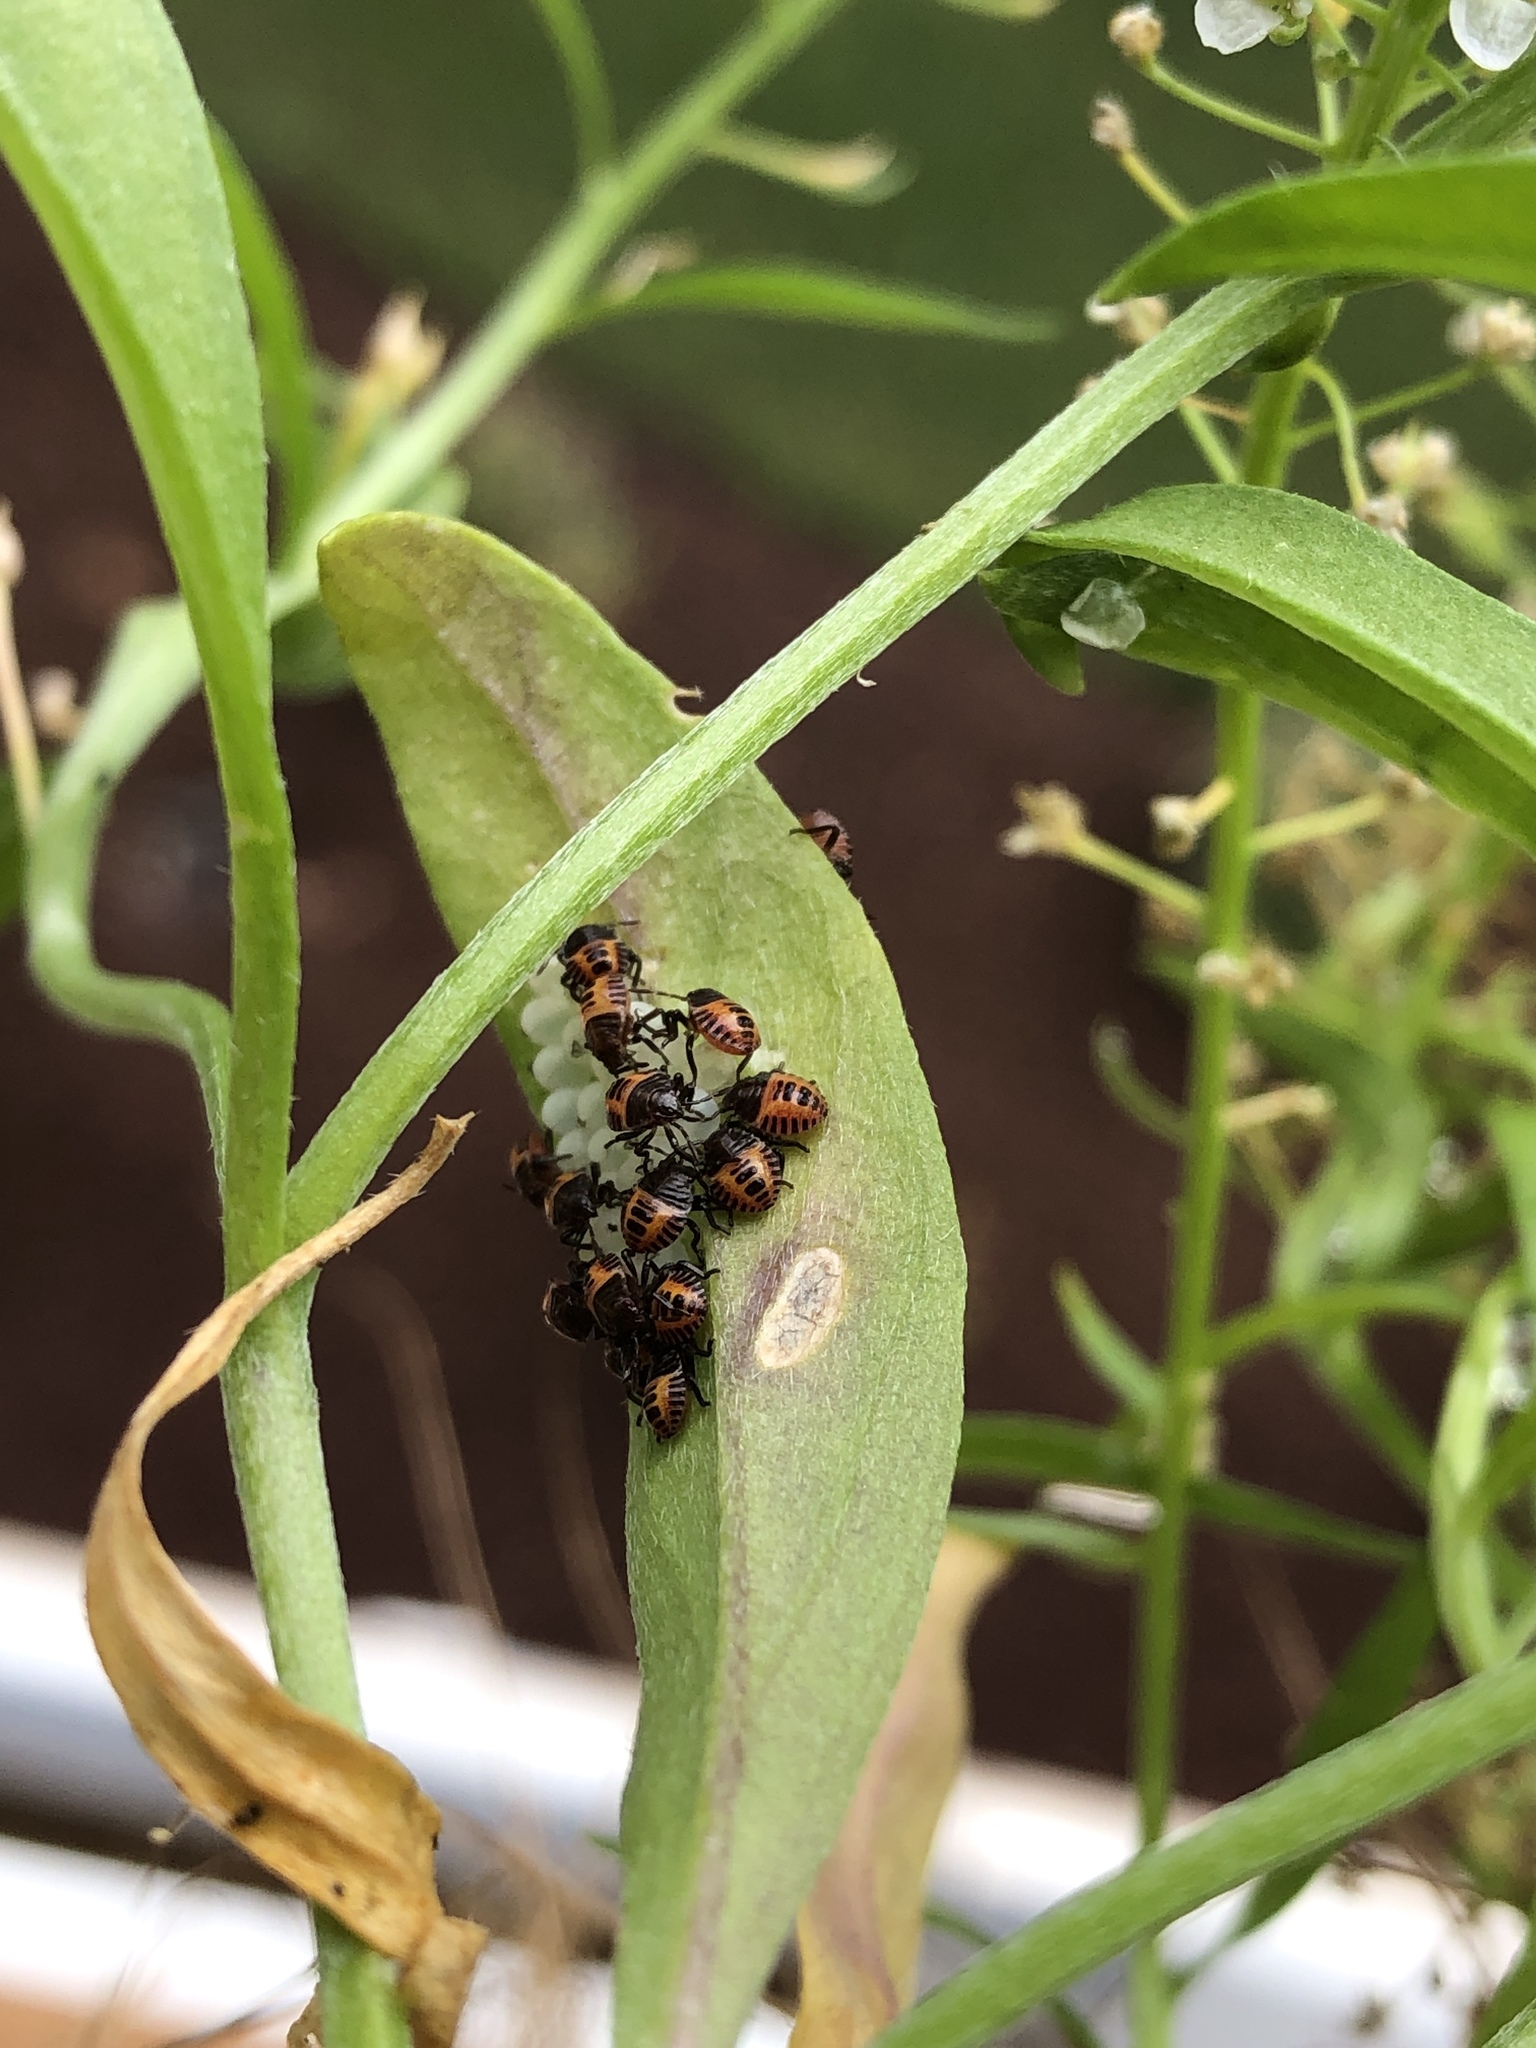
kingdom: Animalia
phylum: Arthropoda
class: Insecta
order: Hemiptera
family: Pentatomidae
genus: Halyomorpha
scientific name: Halyomorpha halys
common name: Brown marmorated stink bug
